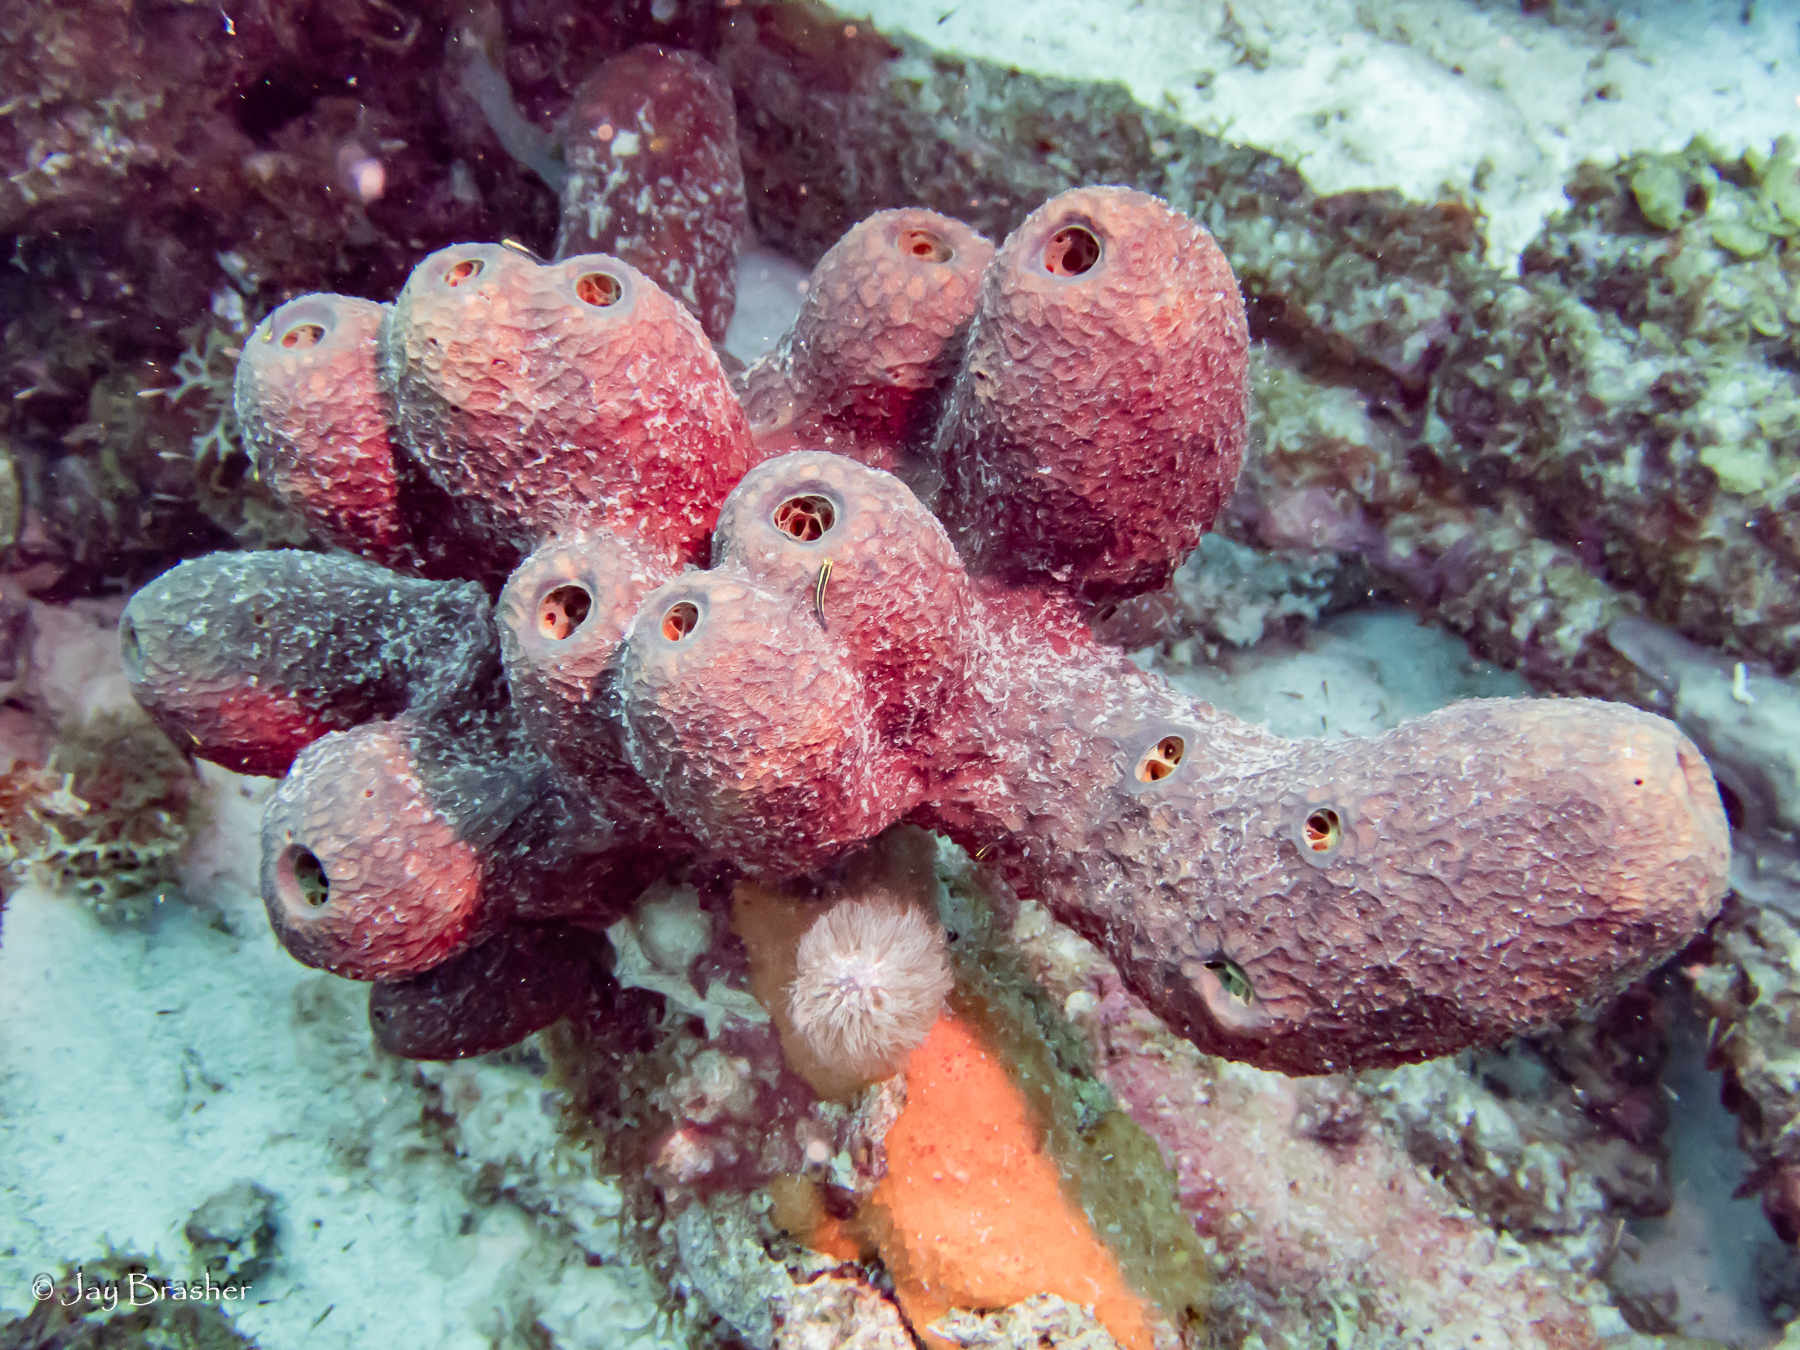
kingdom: Animalia
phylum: Porifera
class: Demospongiae
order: Verongiida
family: Aplysinidae
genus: Verongula
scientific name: Verongula reiswigi
